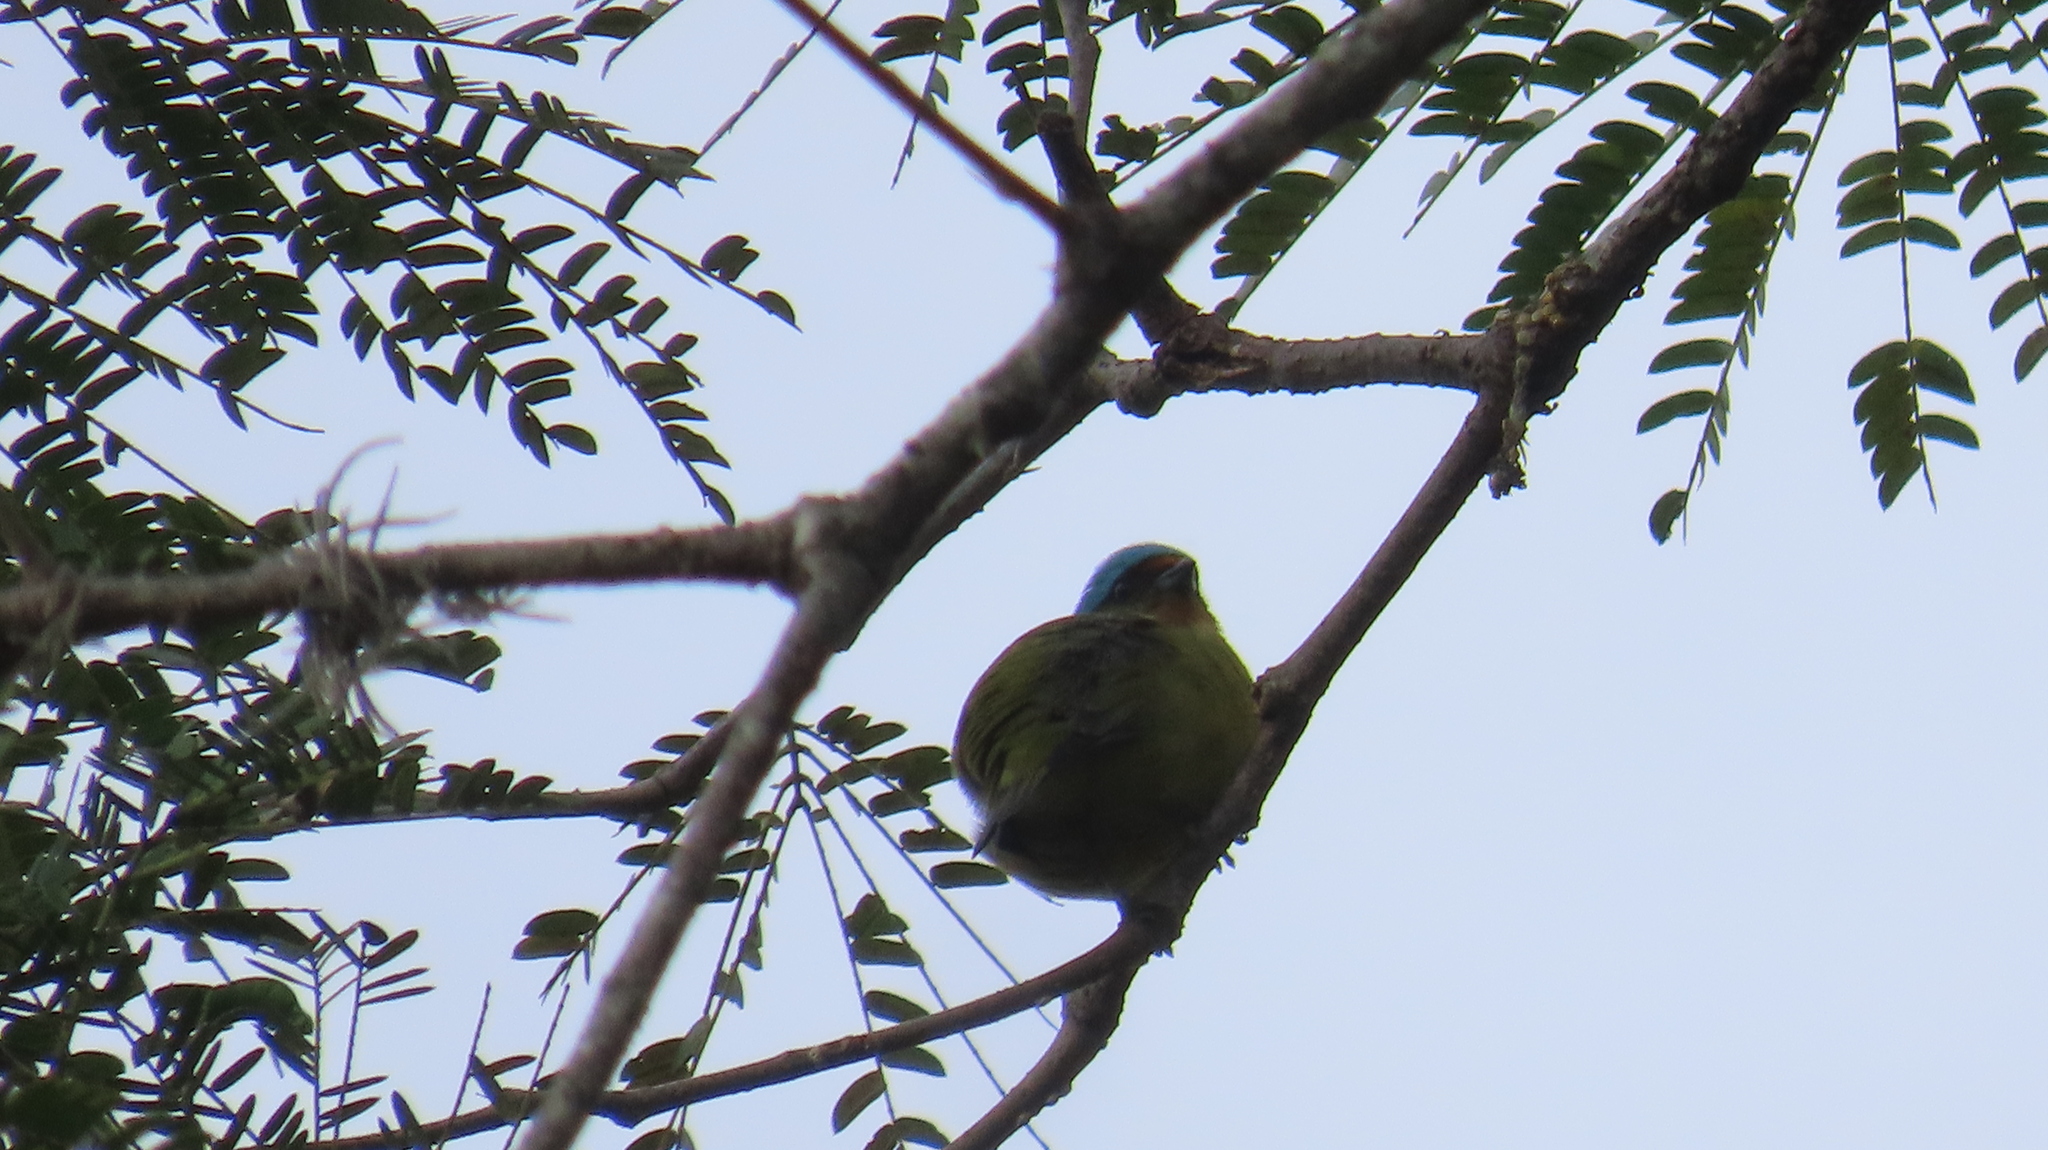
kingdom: Animalia
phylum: Chordata
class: Aves
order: Passeriformes
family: Fringillidae
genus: Euphonia
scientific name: Euphonia elegantissima
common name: Elegant euphonia
